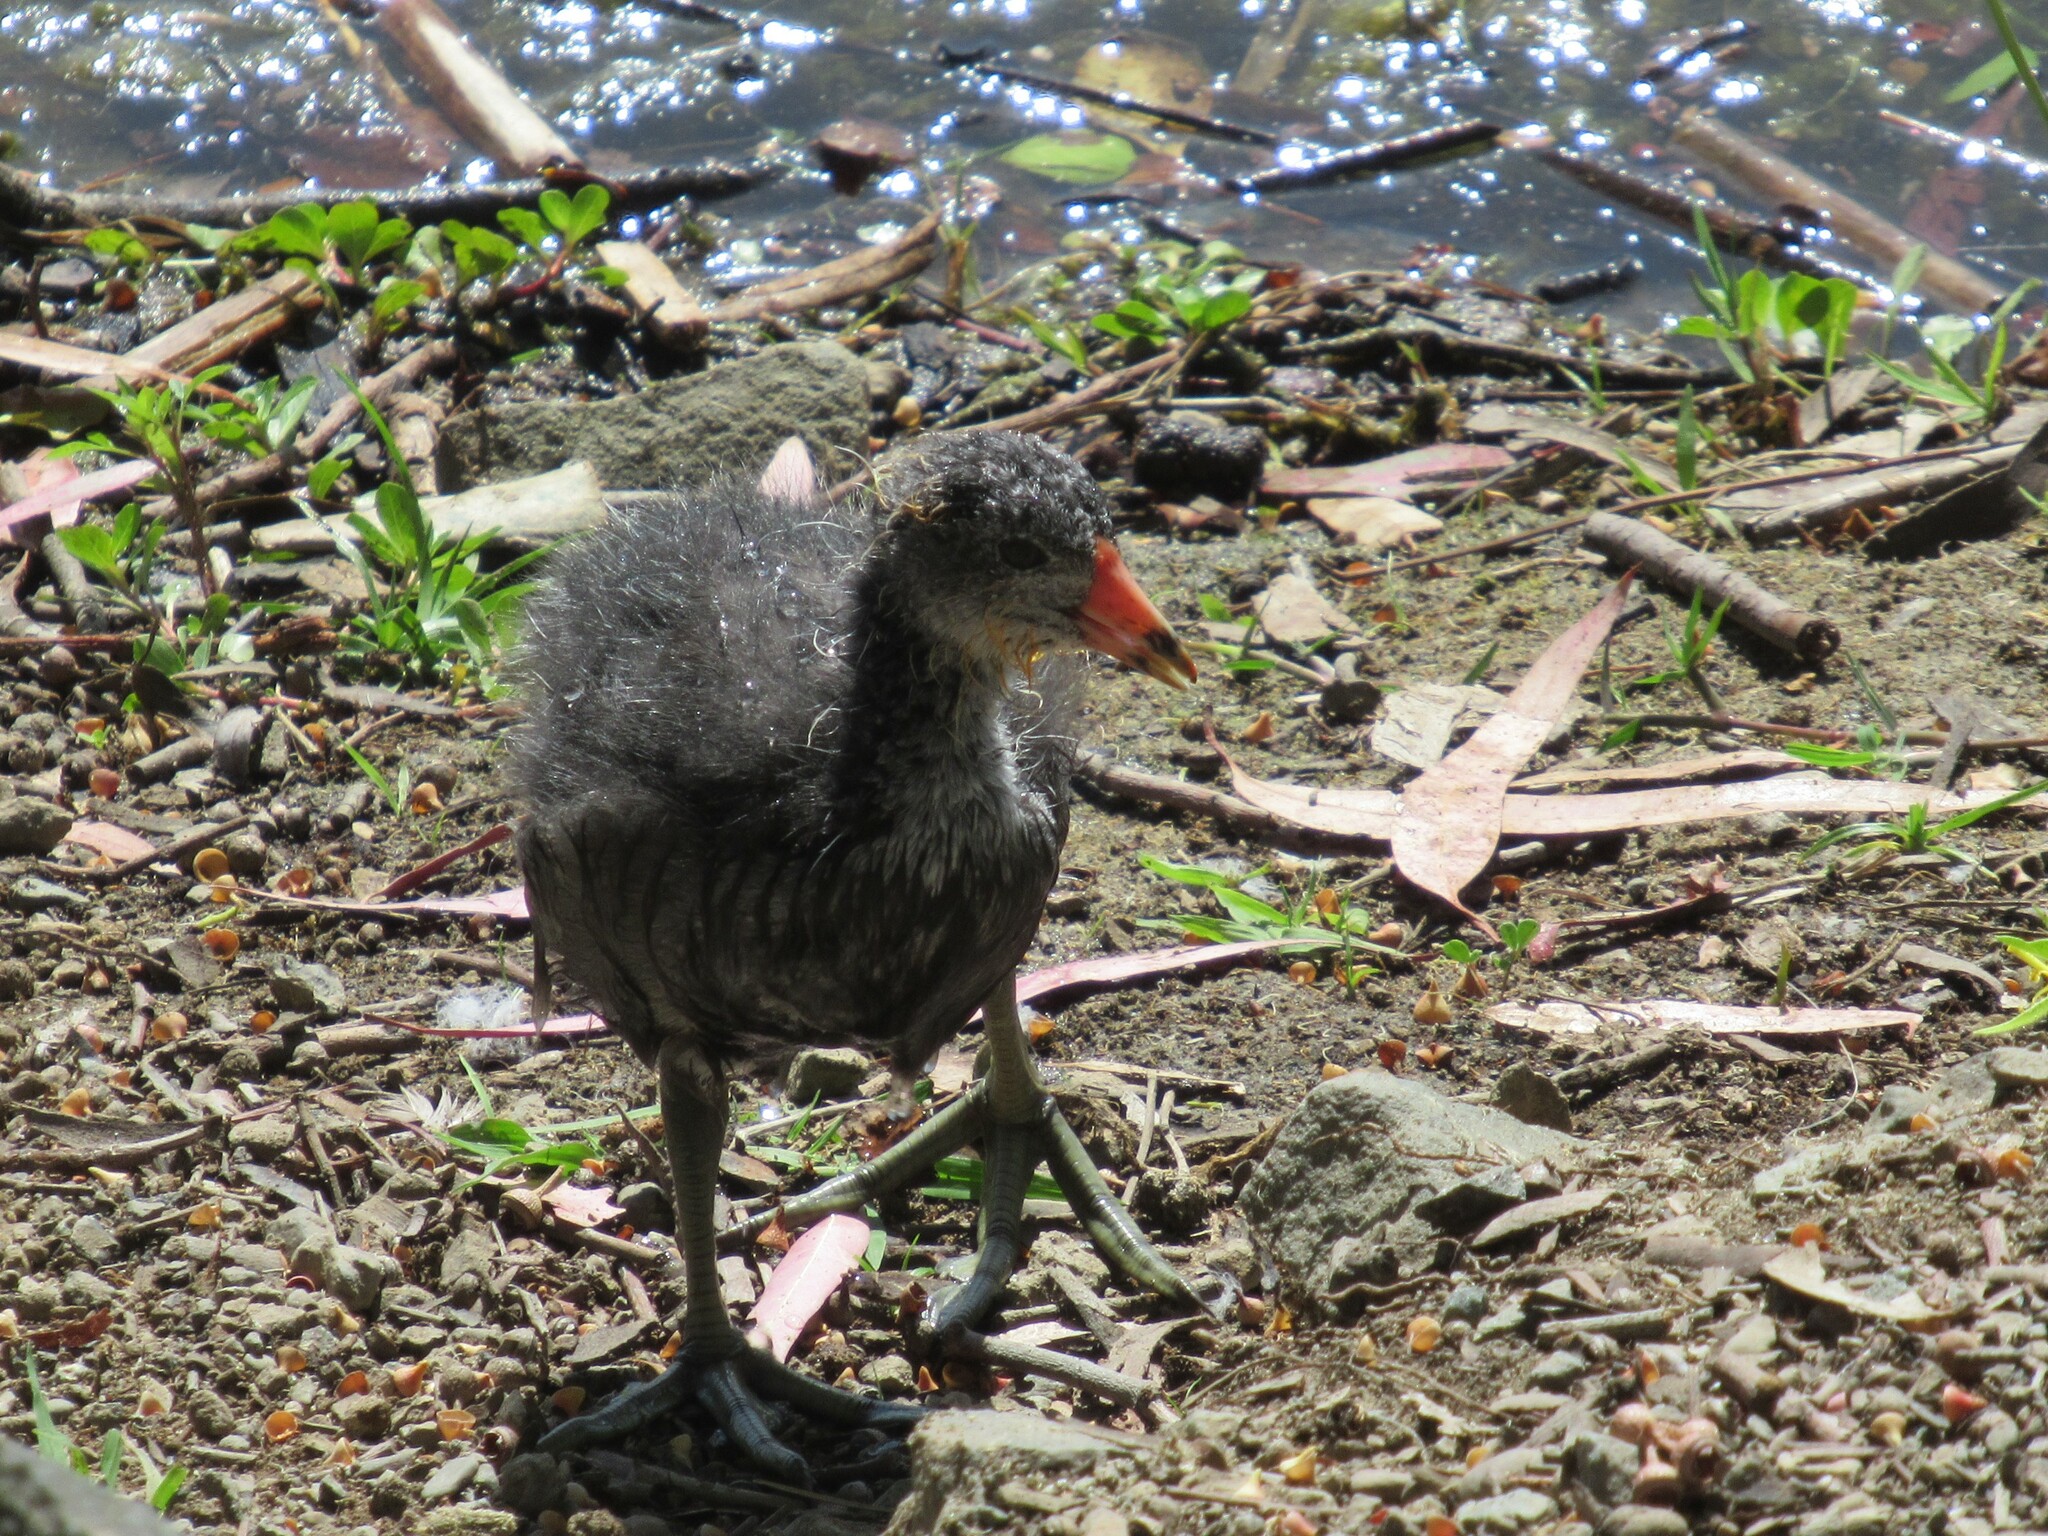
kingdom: Animalia
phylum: Chordata
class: Aves
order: Gruiformes
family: Rallidae
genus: Fulica
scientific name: Fulica americana
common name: American coot
